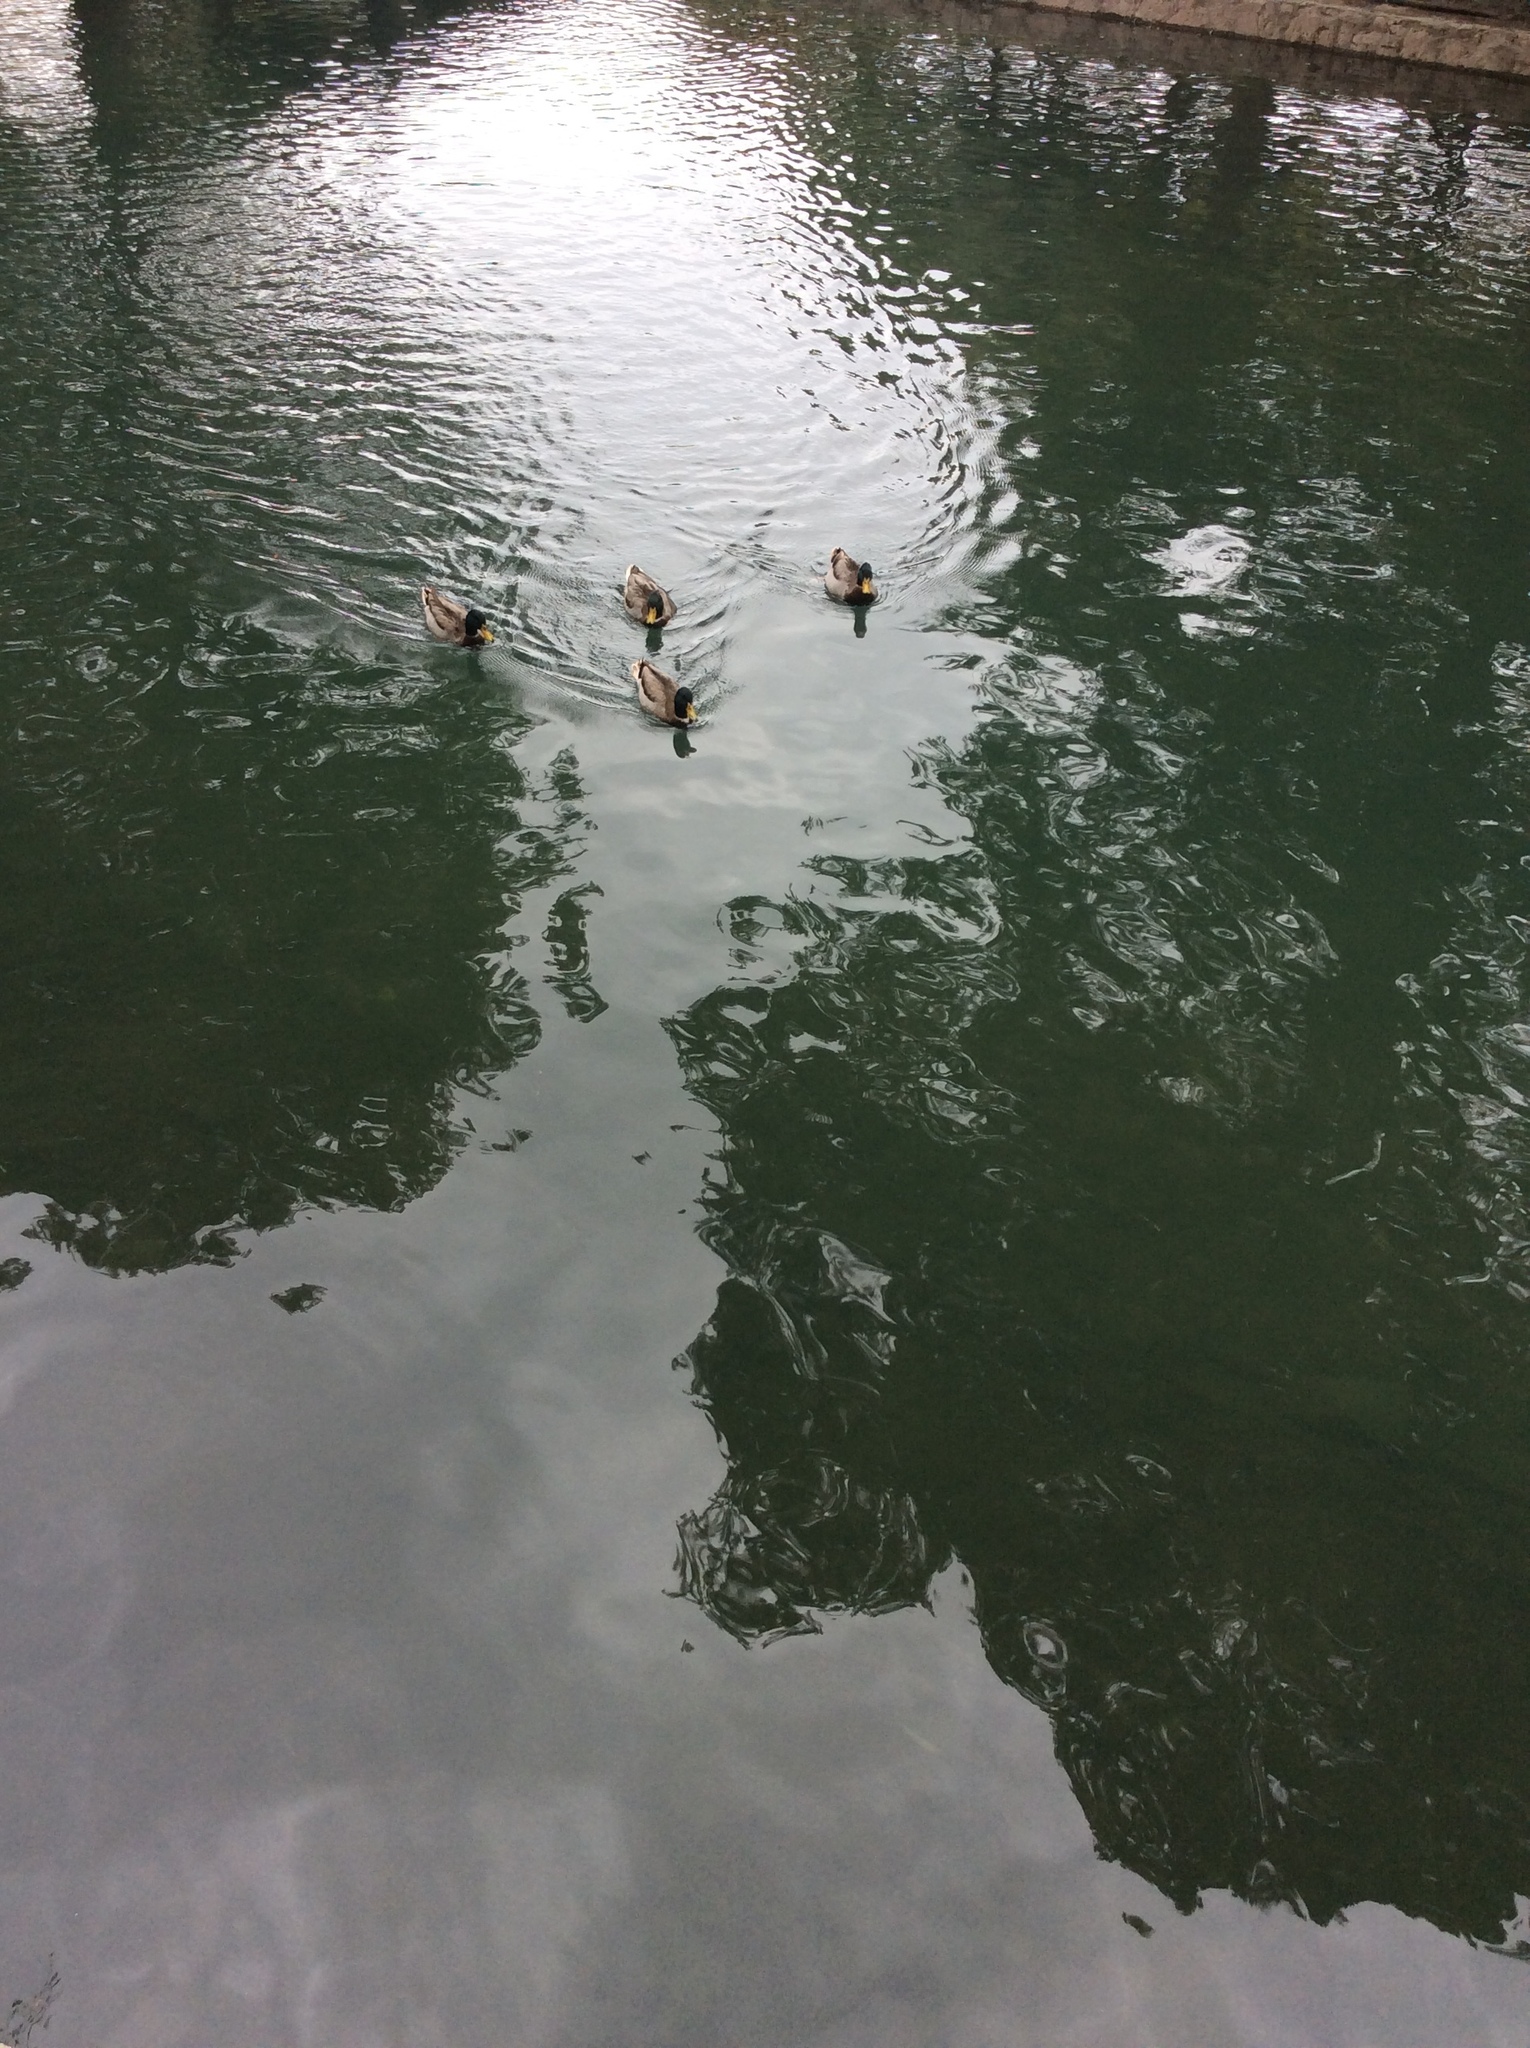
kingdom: Animalia
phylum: Chordata
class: Aves
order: Anseriformes
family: Anatidae
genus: Anas
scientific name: Anas platyrhynchos
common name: Mallard
